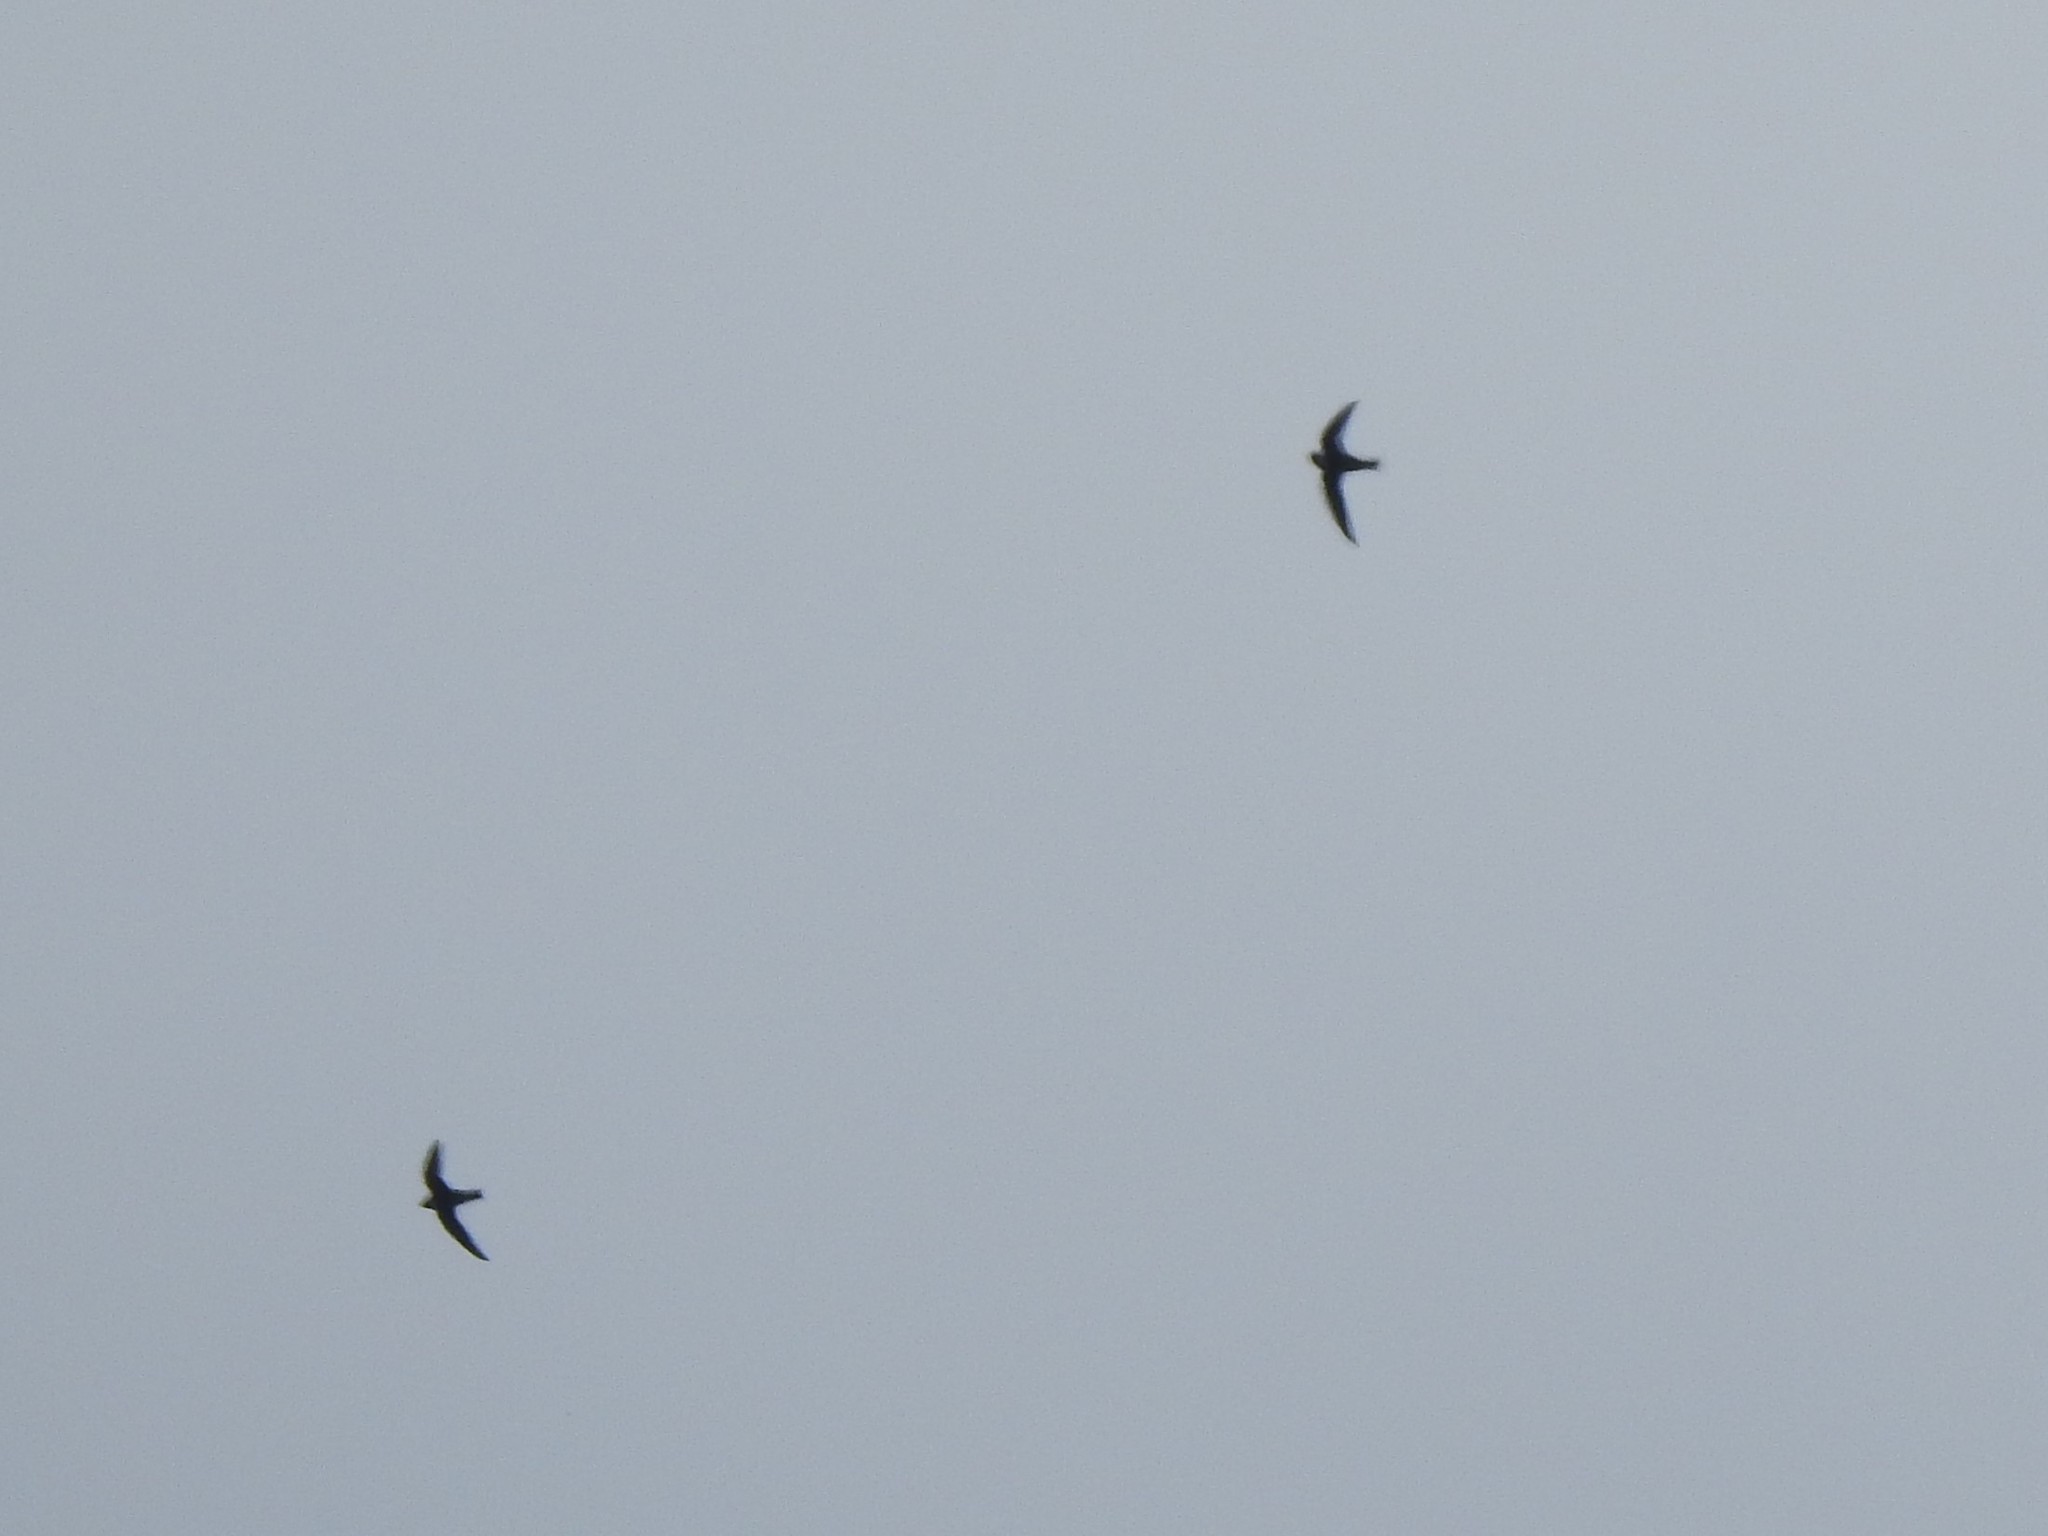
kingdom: Animalia
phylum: Chordata
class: Aves
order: Apodiformes
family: Apodidae
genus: Streptoprocne
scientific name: Streptoprocne zonaris
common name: White-collared swift
